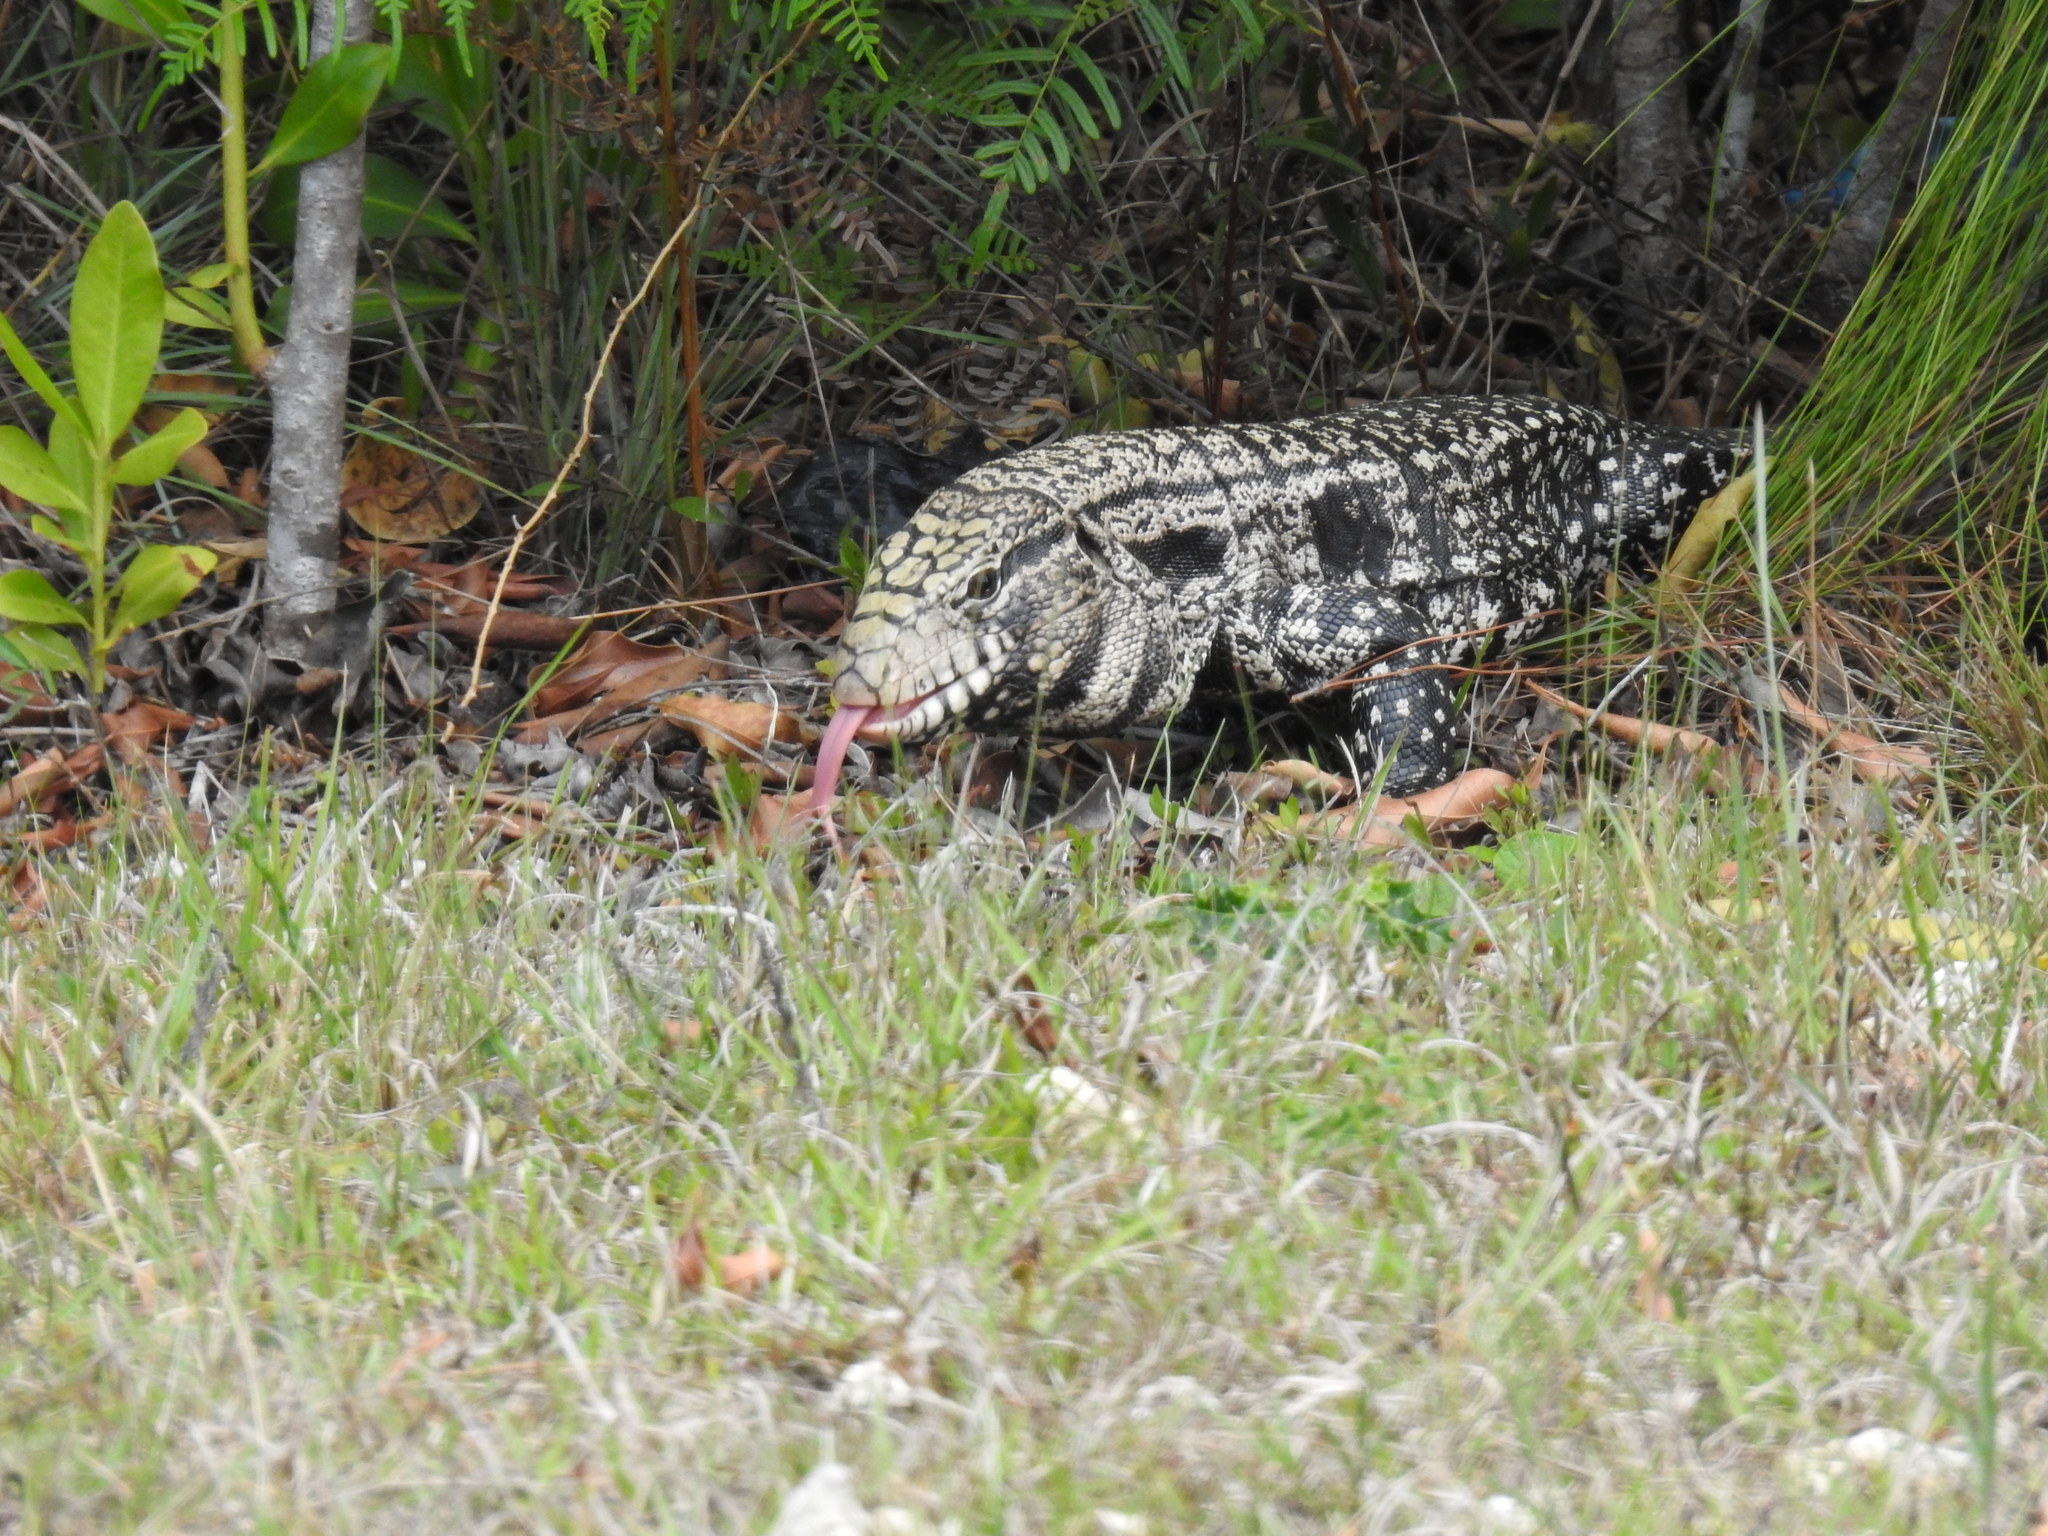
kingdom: Animalia
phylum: Chordata
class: Squamata
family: Teiidae
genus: Salvator
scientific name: Salvator merianae
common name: Argentine black and white tegu
